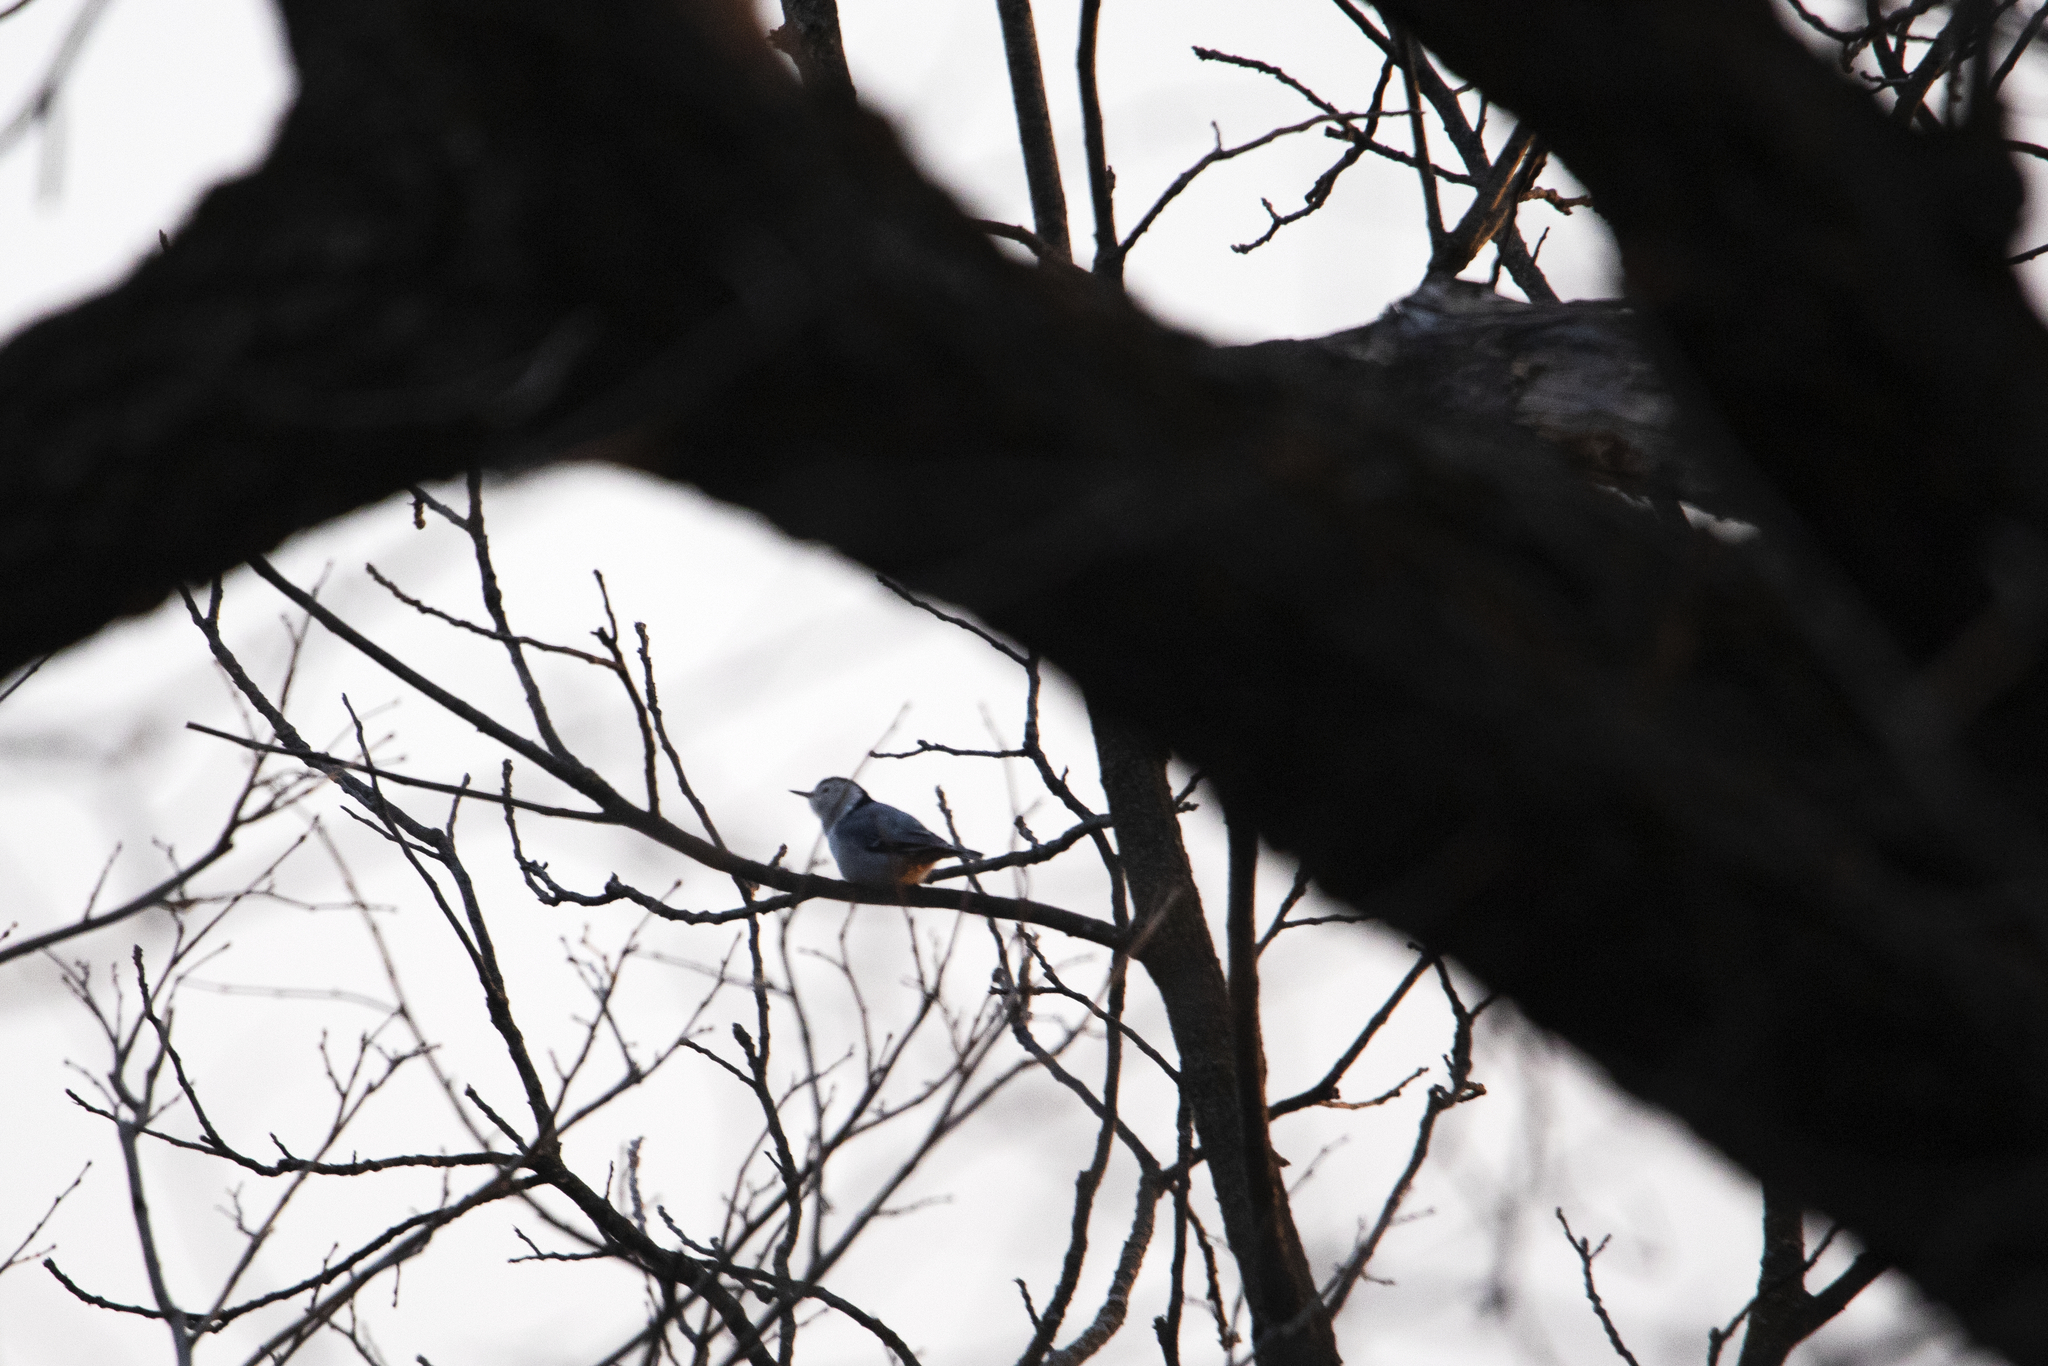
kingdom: Animalia
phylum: Chordata
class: Aves
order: Passeriformes
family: Sittidae
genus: Sitta
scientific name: Sitta carolinensis
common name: White-breasted nuthatch
